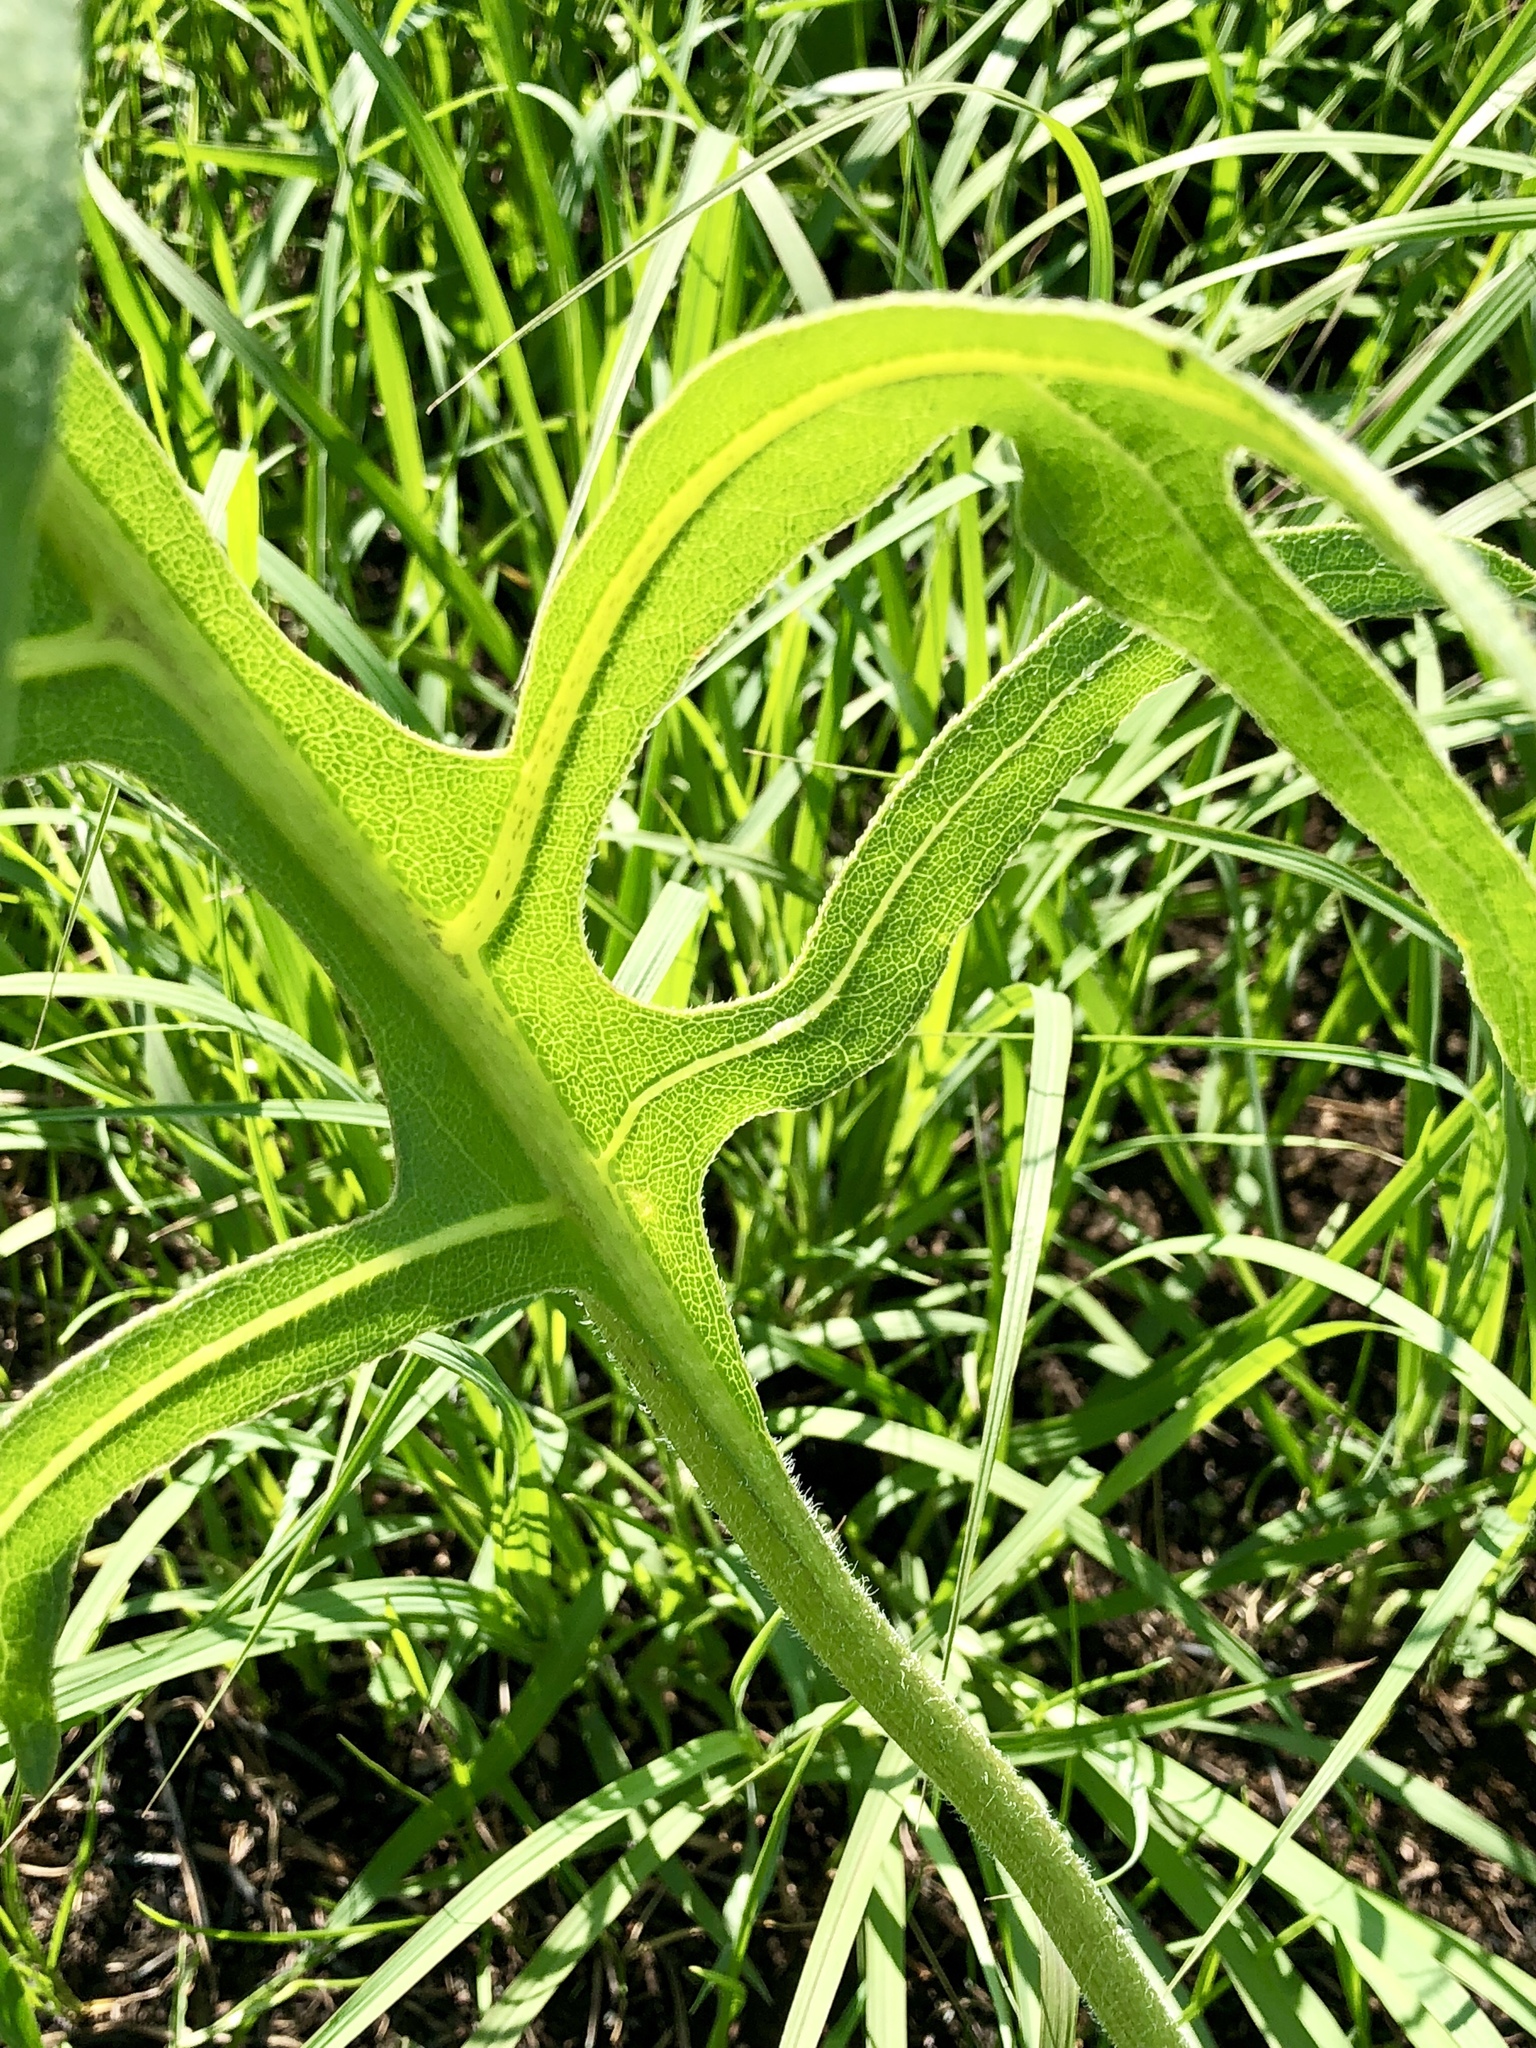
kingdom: Plantae
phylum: Tracheophyta
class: Magnoliopsida
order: Asterales
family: Asteraceae
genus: Silphium
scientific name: Silphium laciniatum
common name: Polarplant
